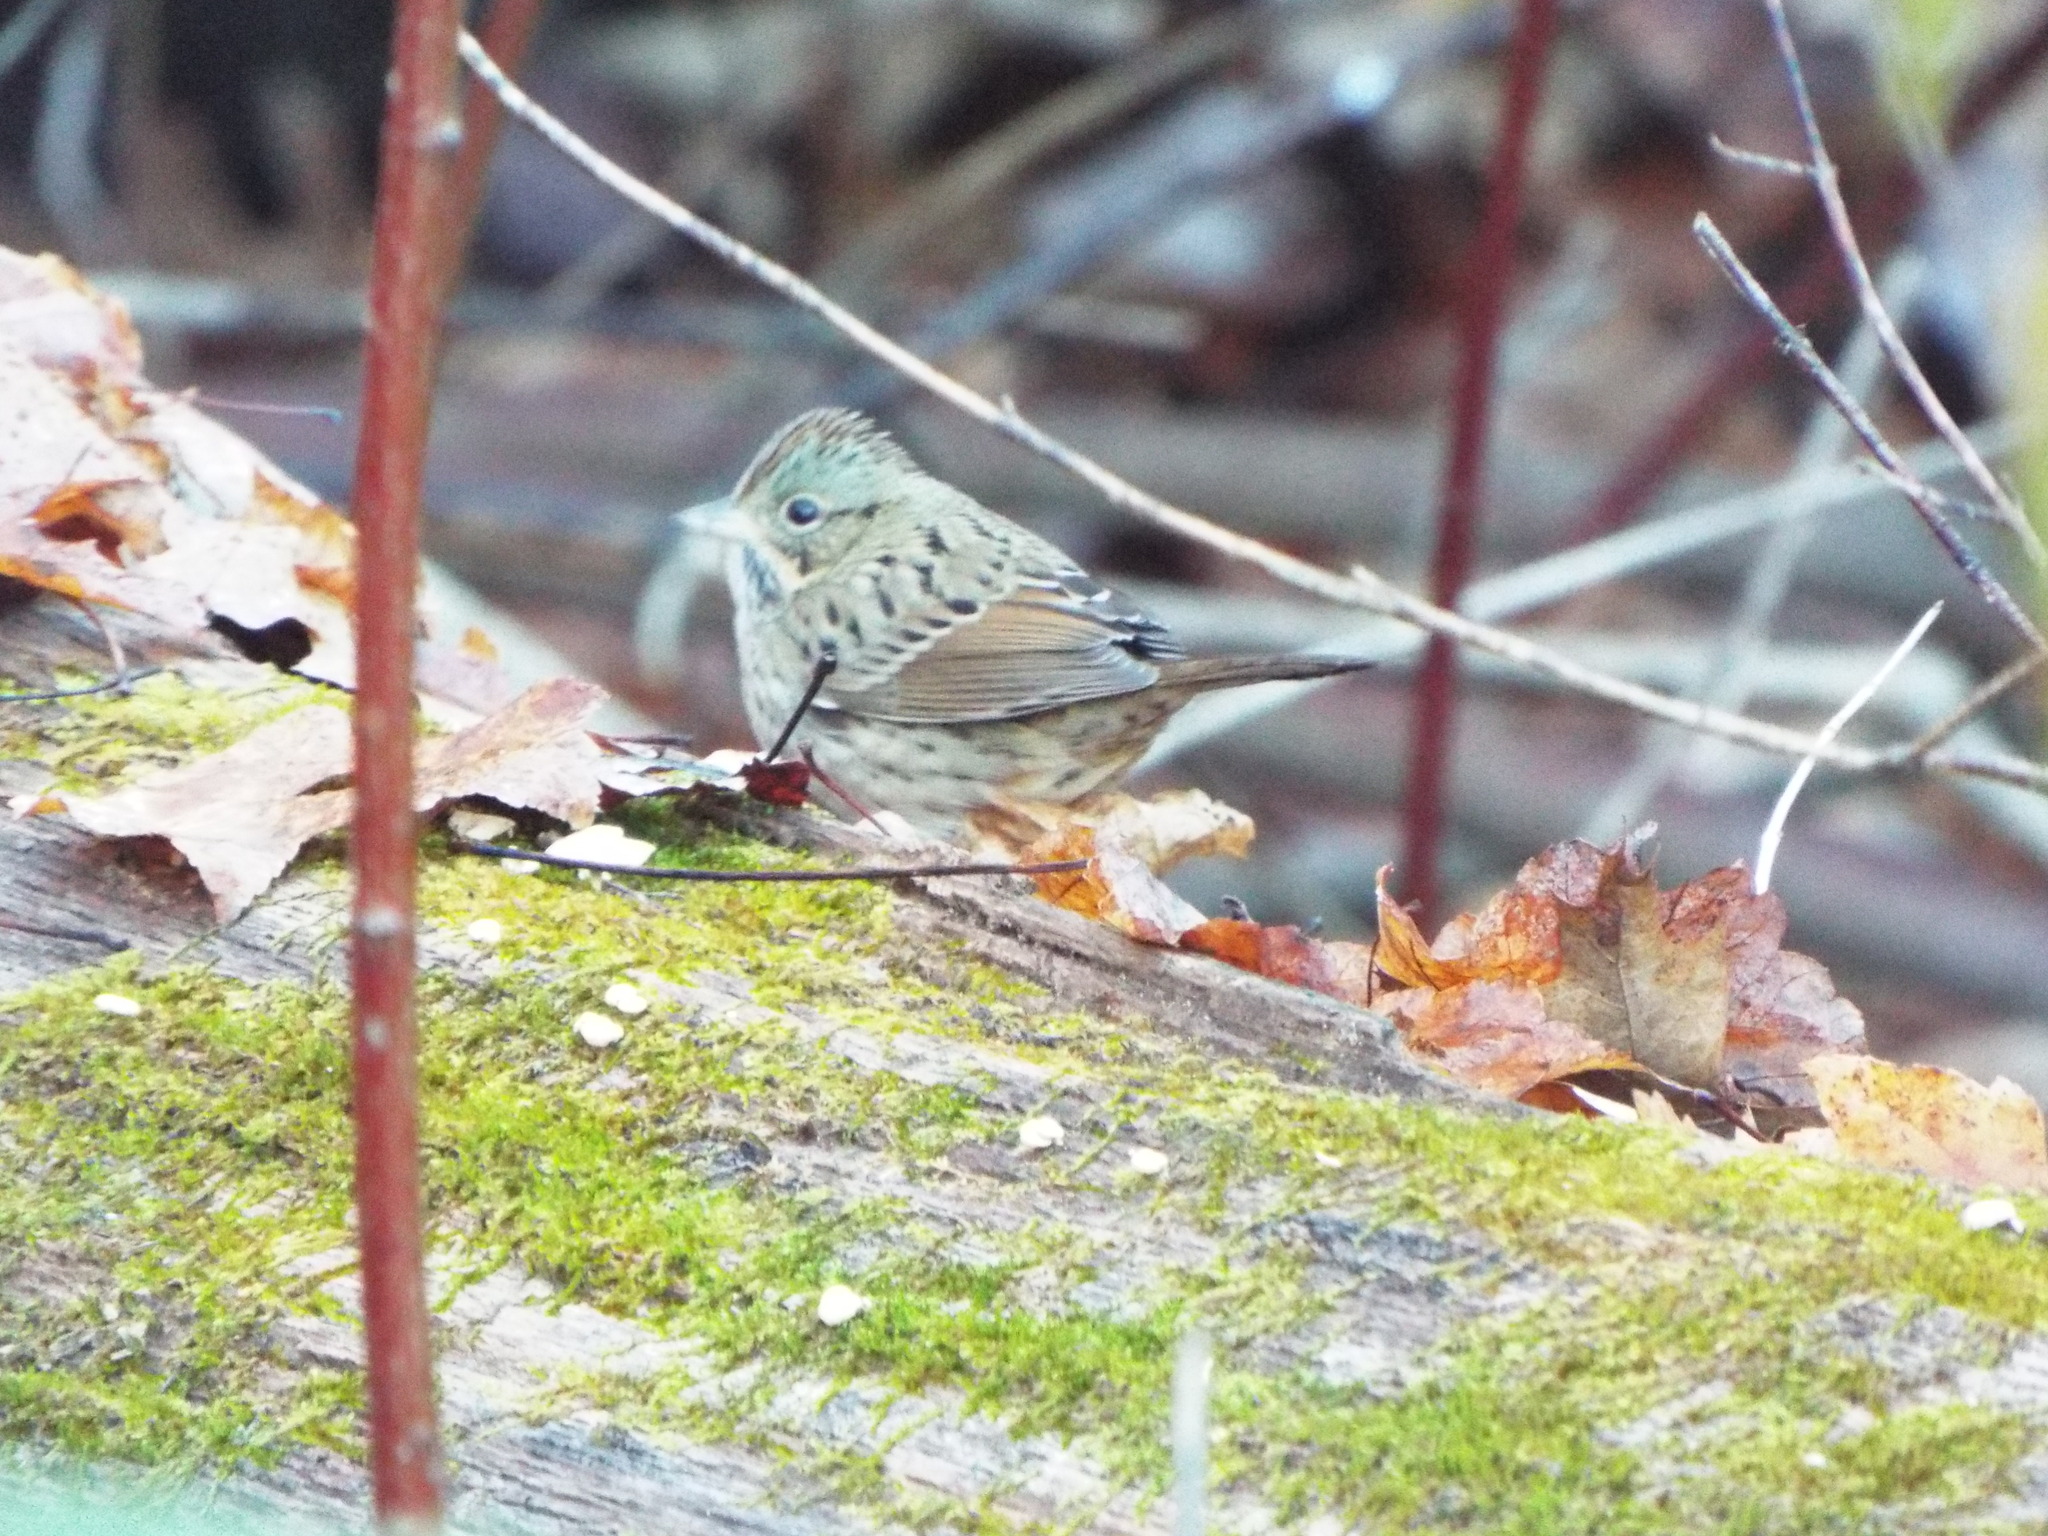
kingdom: Animalia
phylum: Chordata
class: Aves
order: Passeriformes
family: Passerellidae
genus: Melospiza
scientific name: Melospiza lincolnii
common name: Lincoln's sparrow
